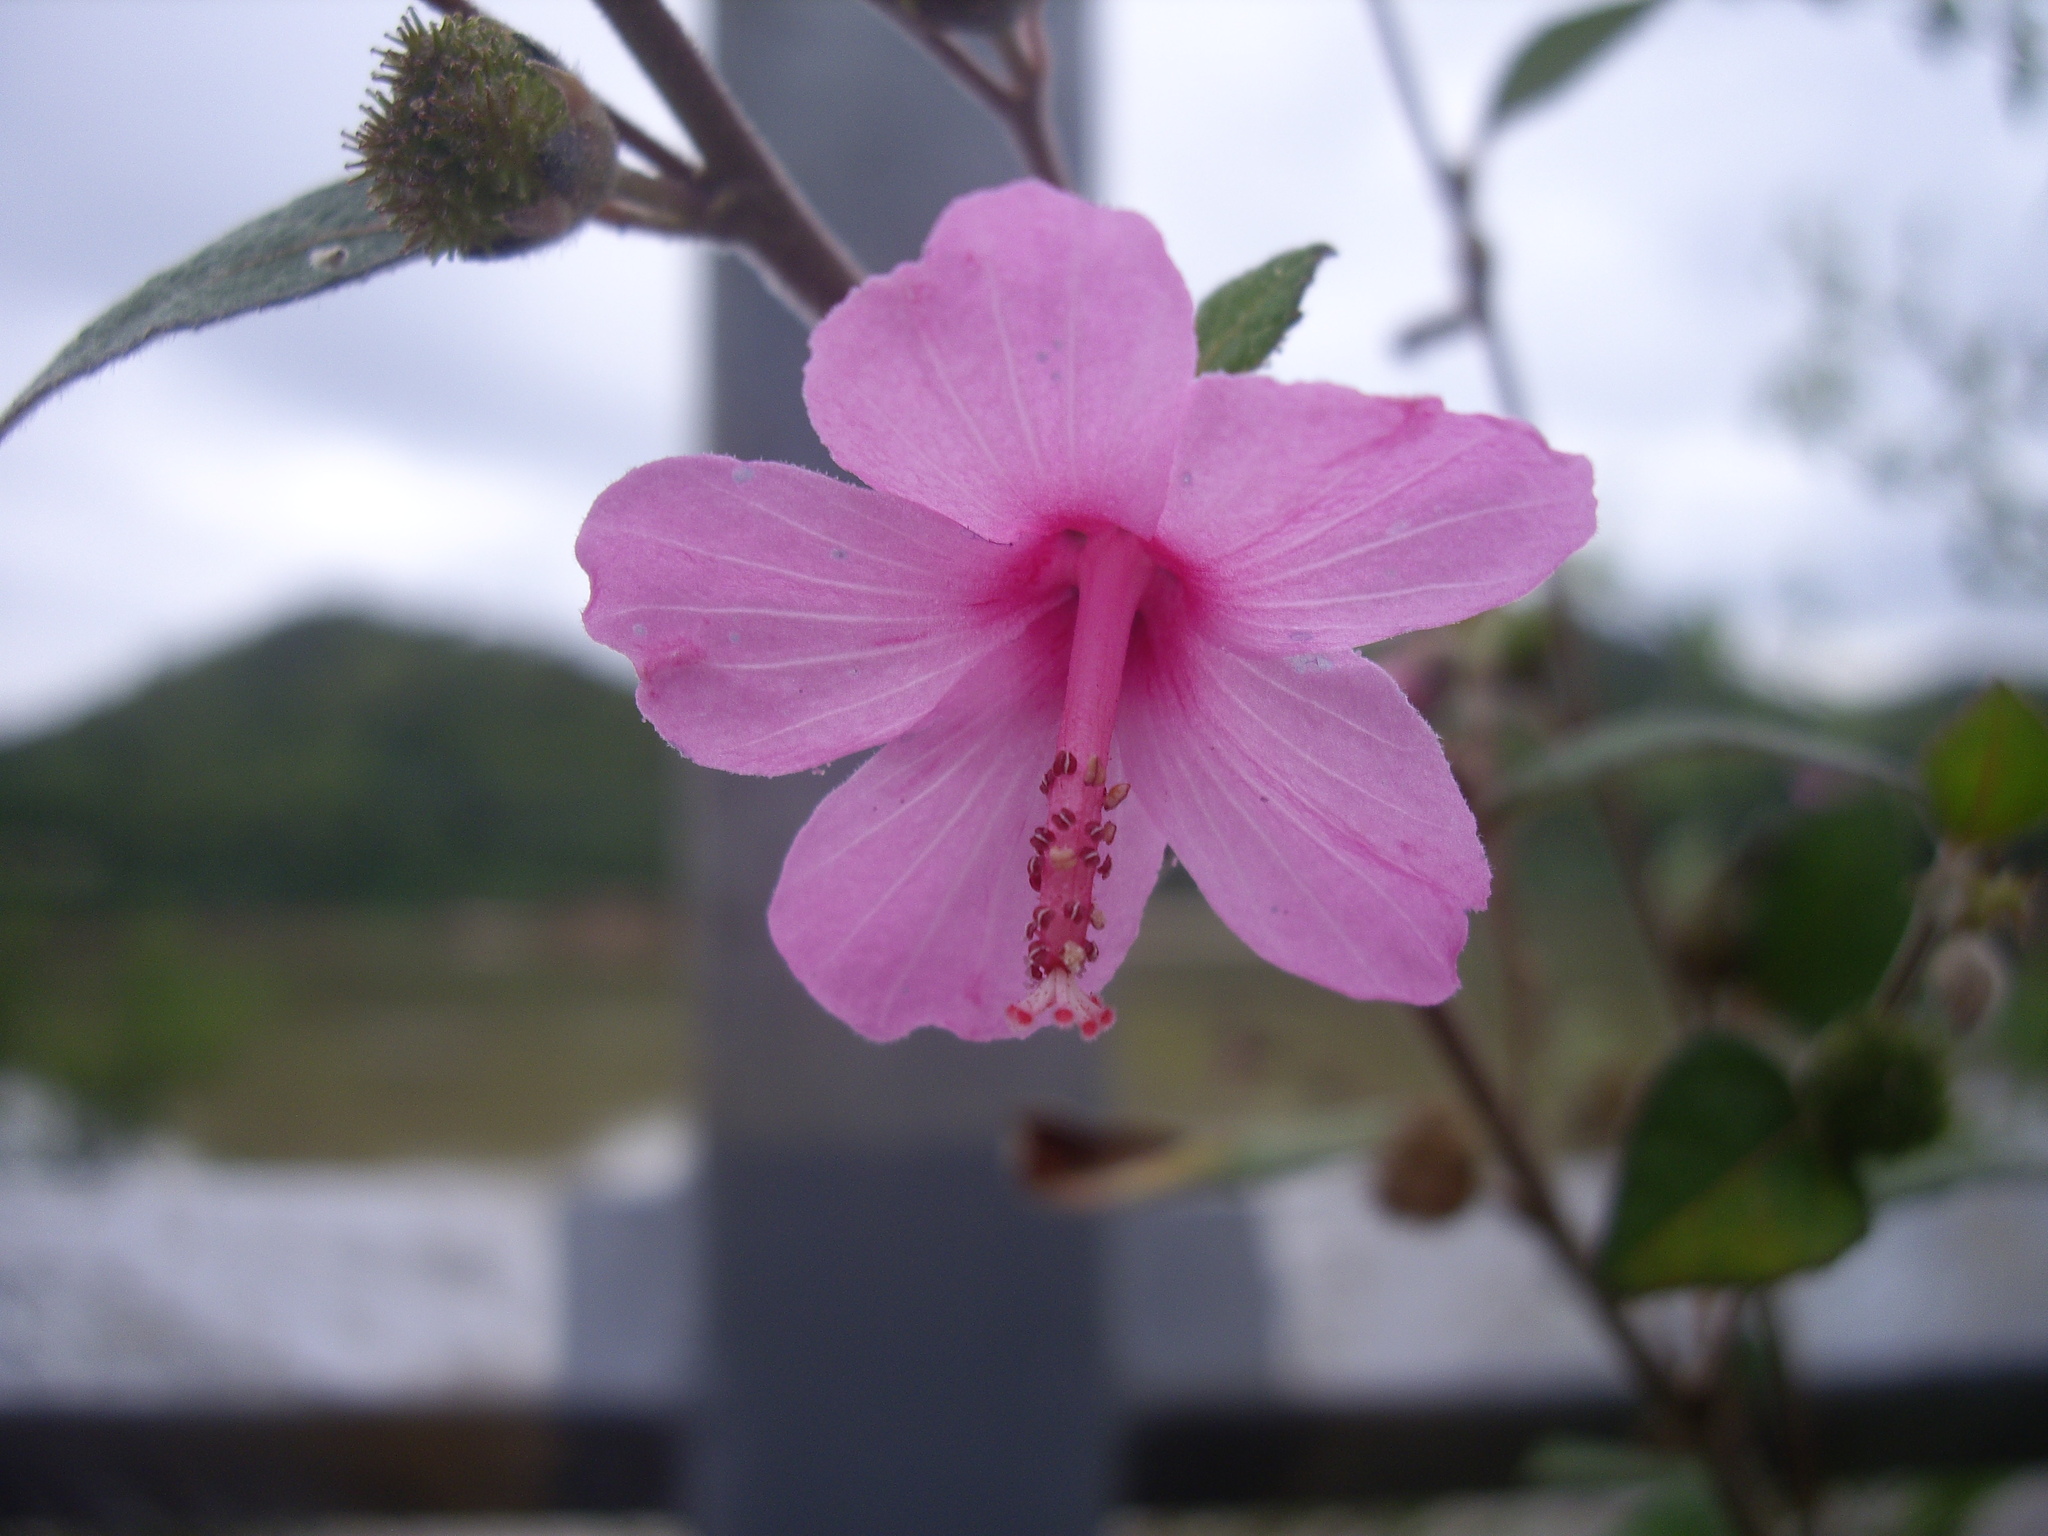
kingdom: Plantae
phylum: Tracheophyta
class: Magnoliopsida
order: Malvales
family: Malvaceae
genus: Urena
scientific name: Urena lobata
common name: Caesarweed
